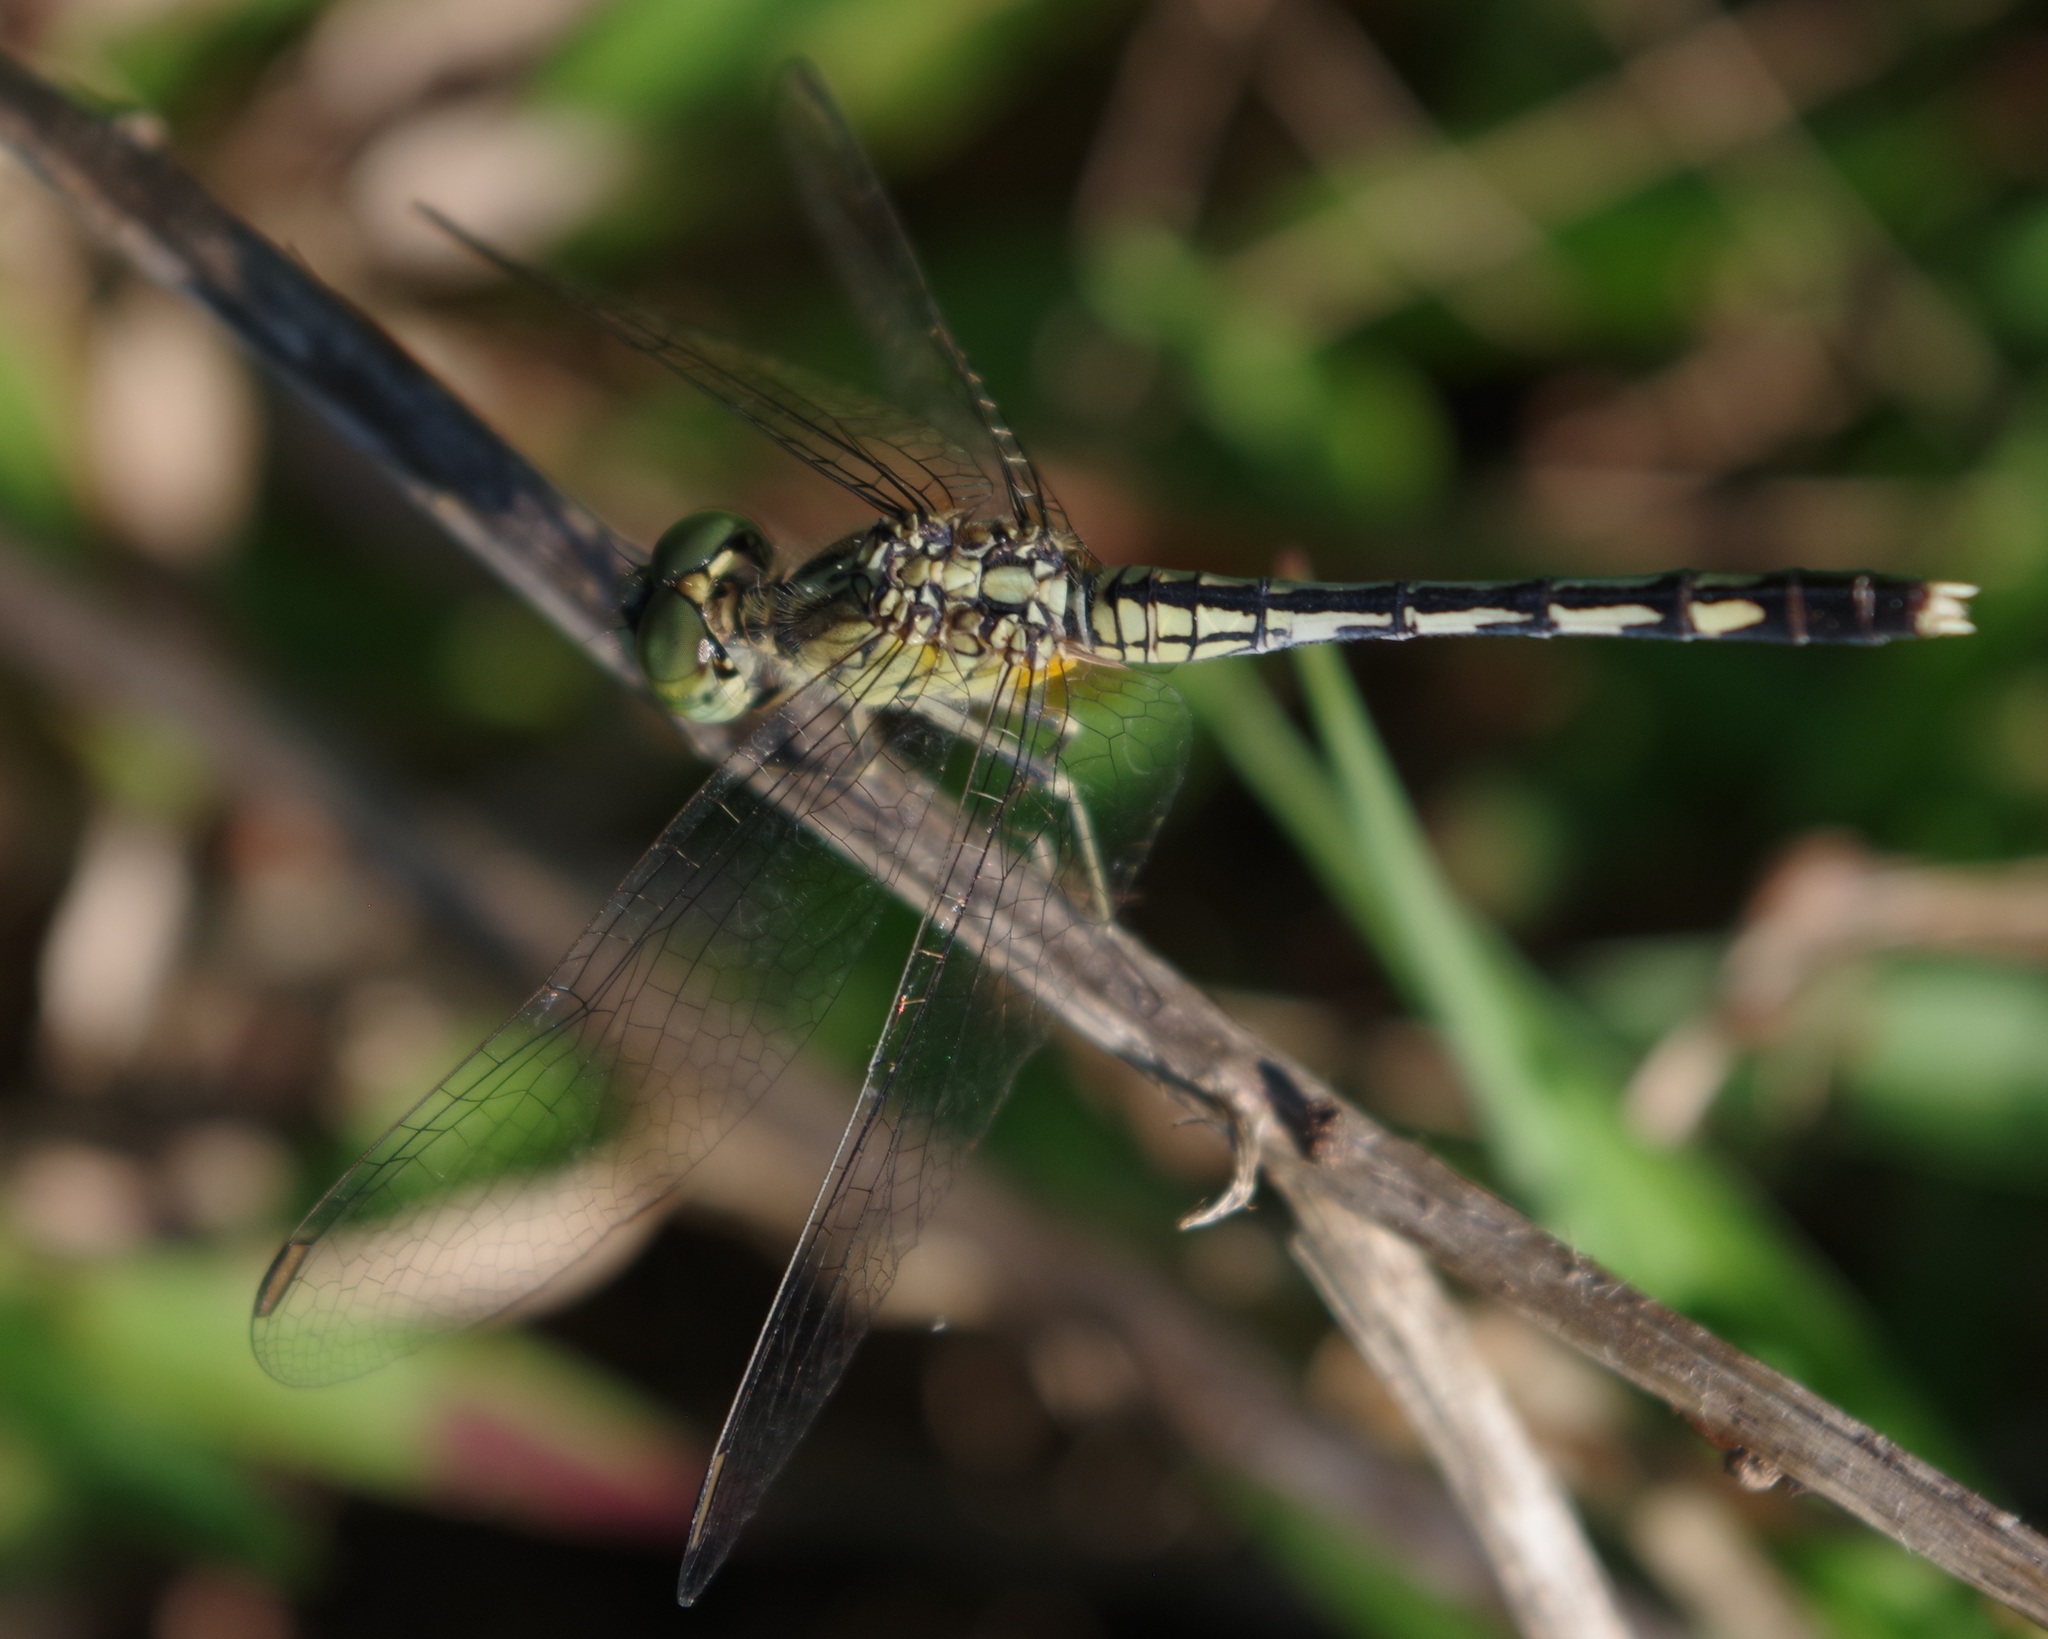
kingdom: Animalia
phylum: Arthropoda
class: Insecta
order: Odonata
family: Libellulidae
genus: Diplacodes
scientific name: Diplacodes trivialis
